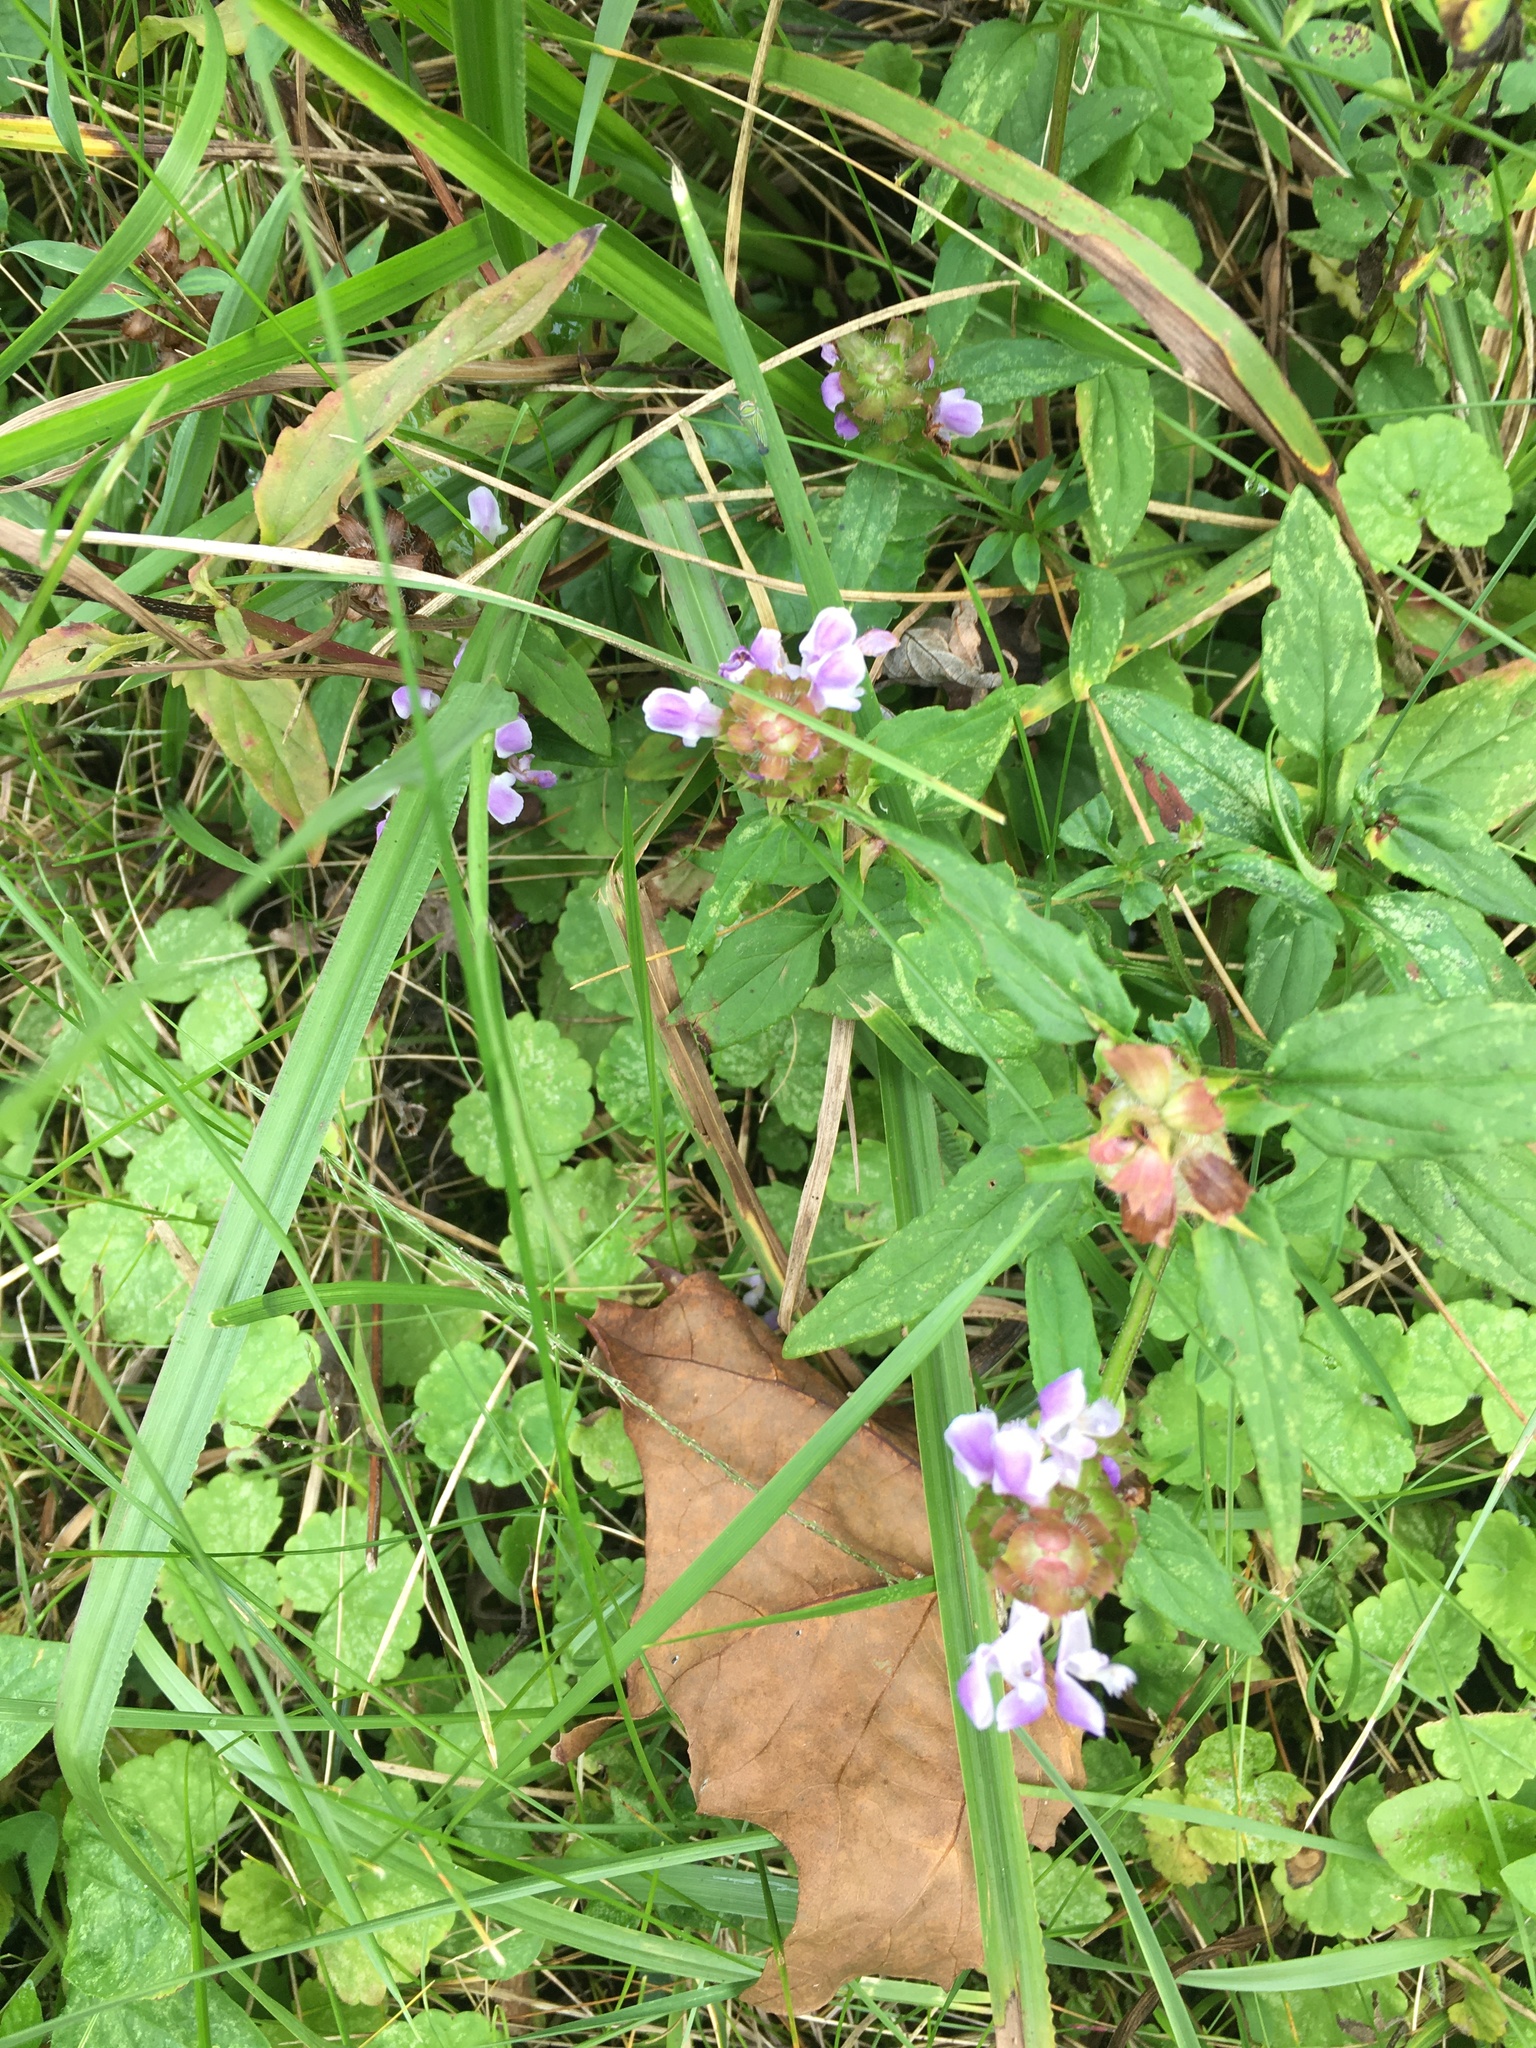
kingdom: Plantae
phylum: Tracheophyta
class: Magnoliopsida
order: Lamiales
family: Lamiaceae
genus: Prunella
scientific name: Prunella vulgaris
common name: Heal-all
